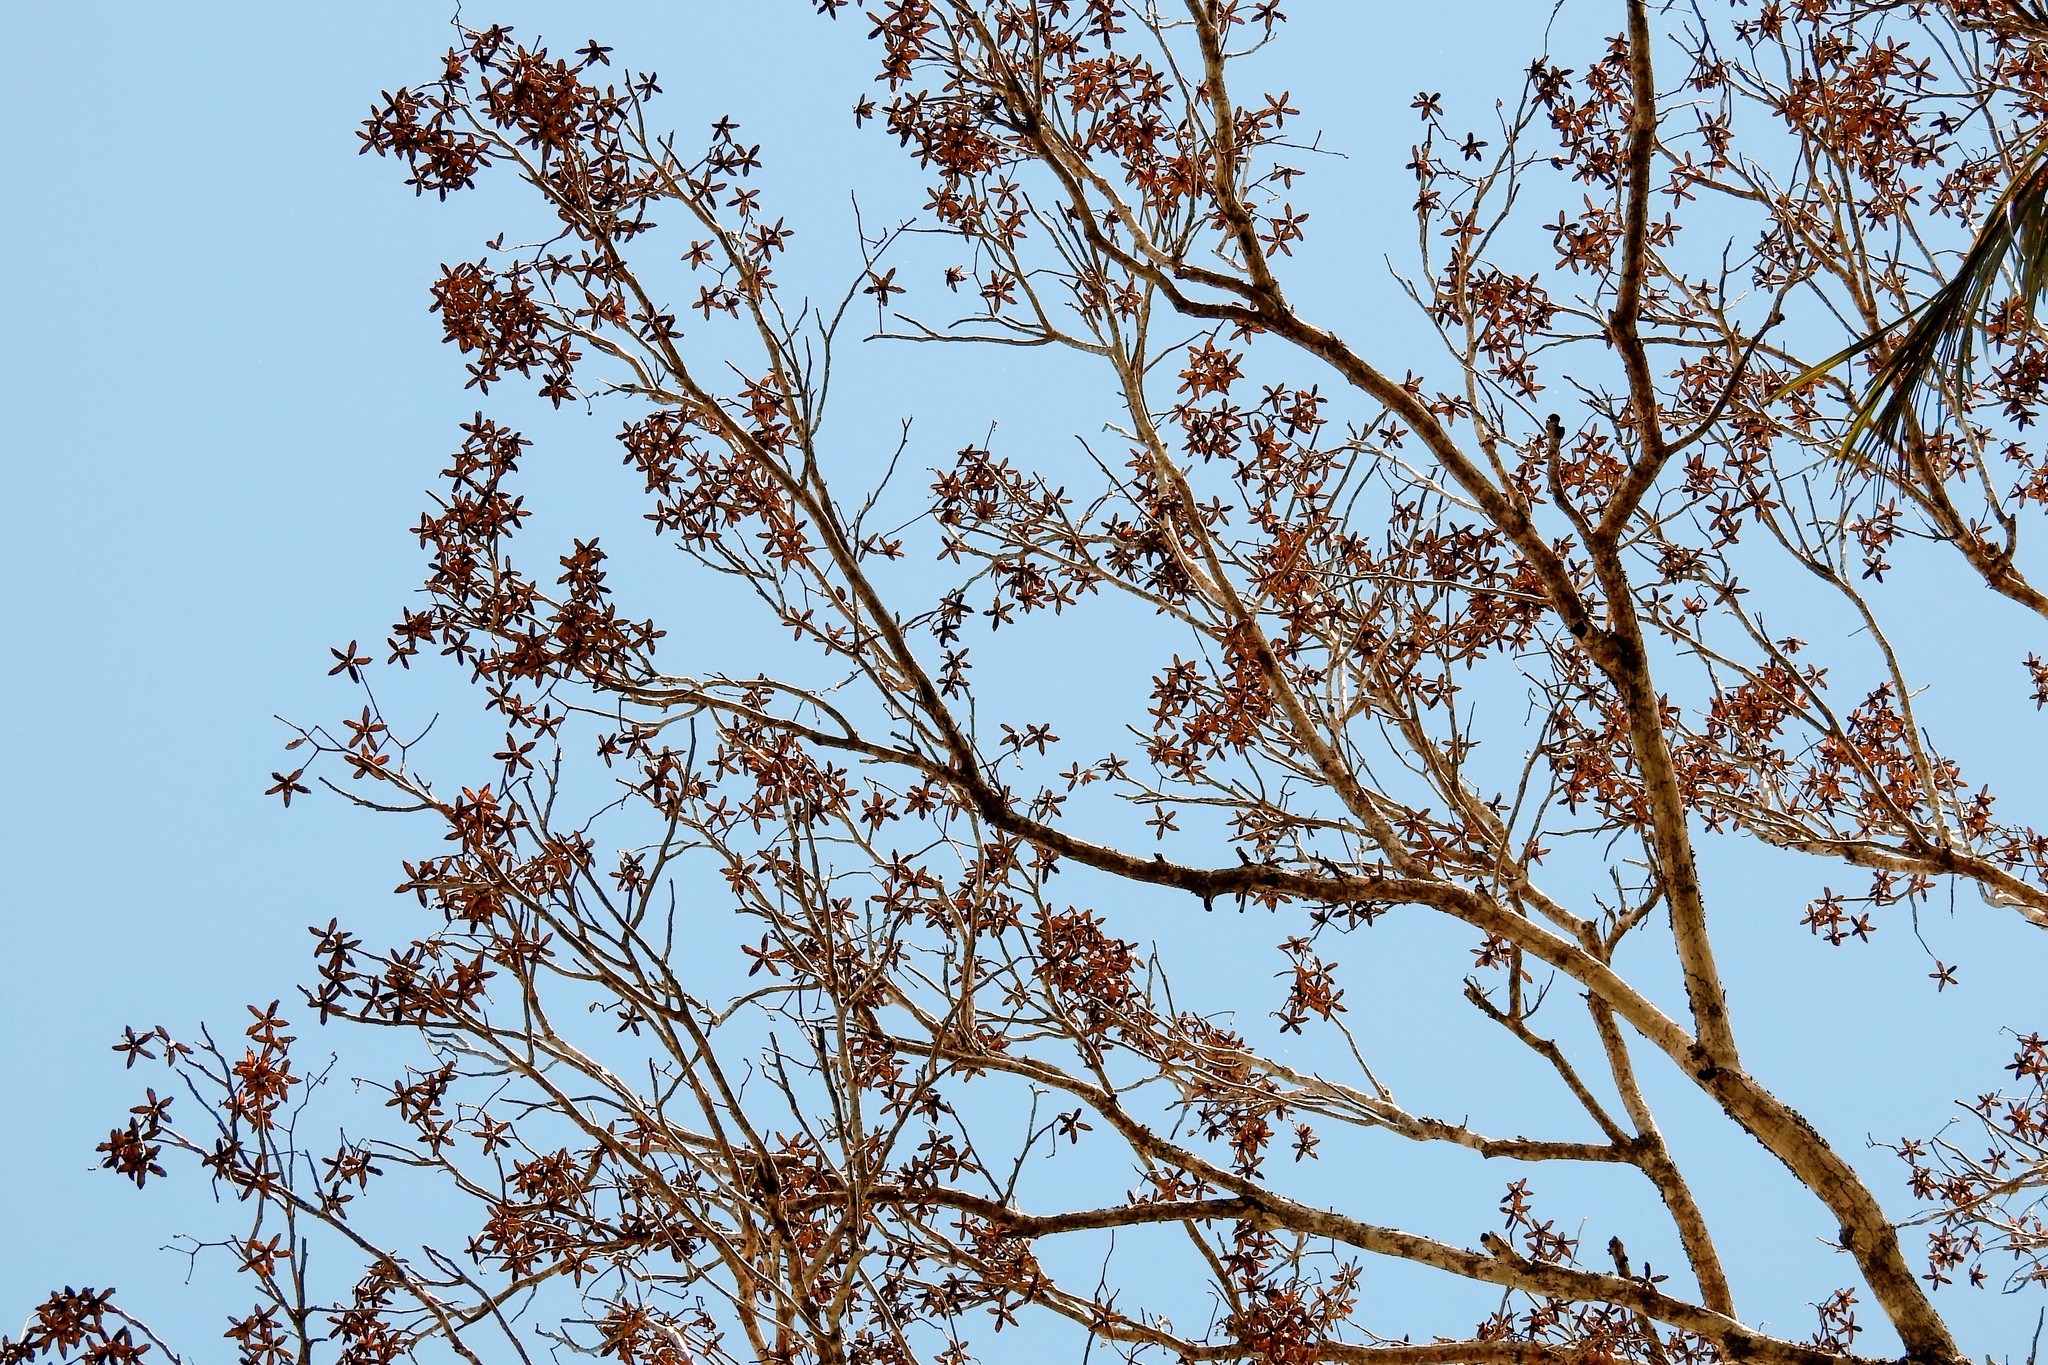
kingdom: Plantae
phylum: Tracheophyta
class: Magnoliopsida
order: Sapindales
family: Meliaceae
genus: Cedrela
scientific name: Cedrela odorata
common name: Red cedar
